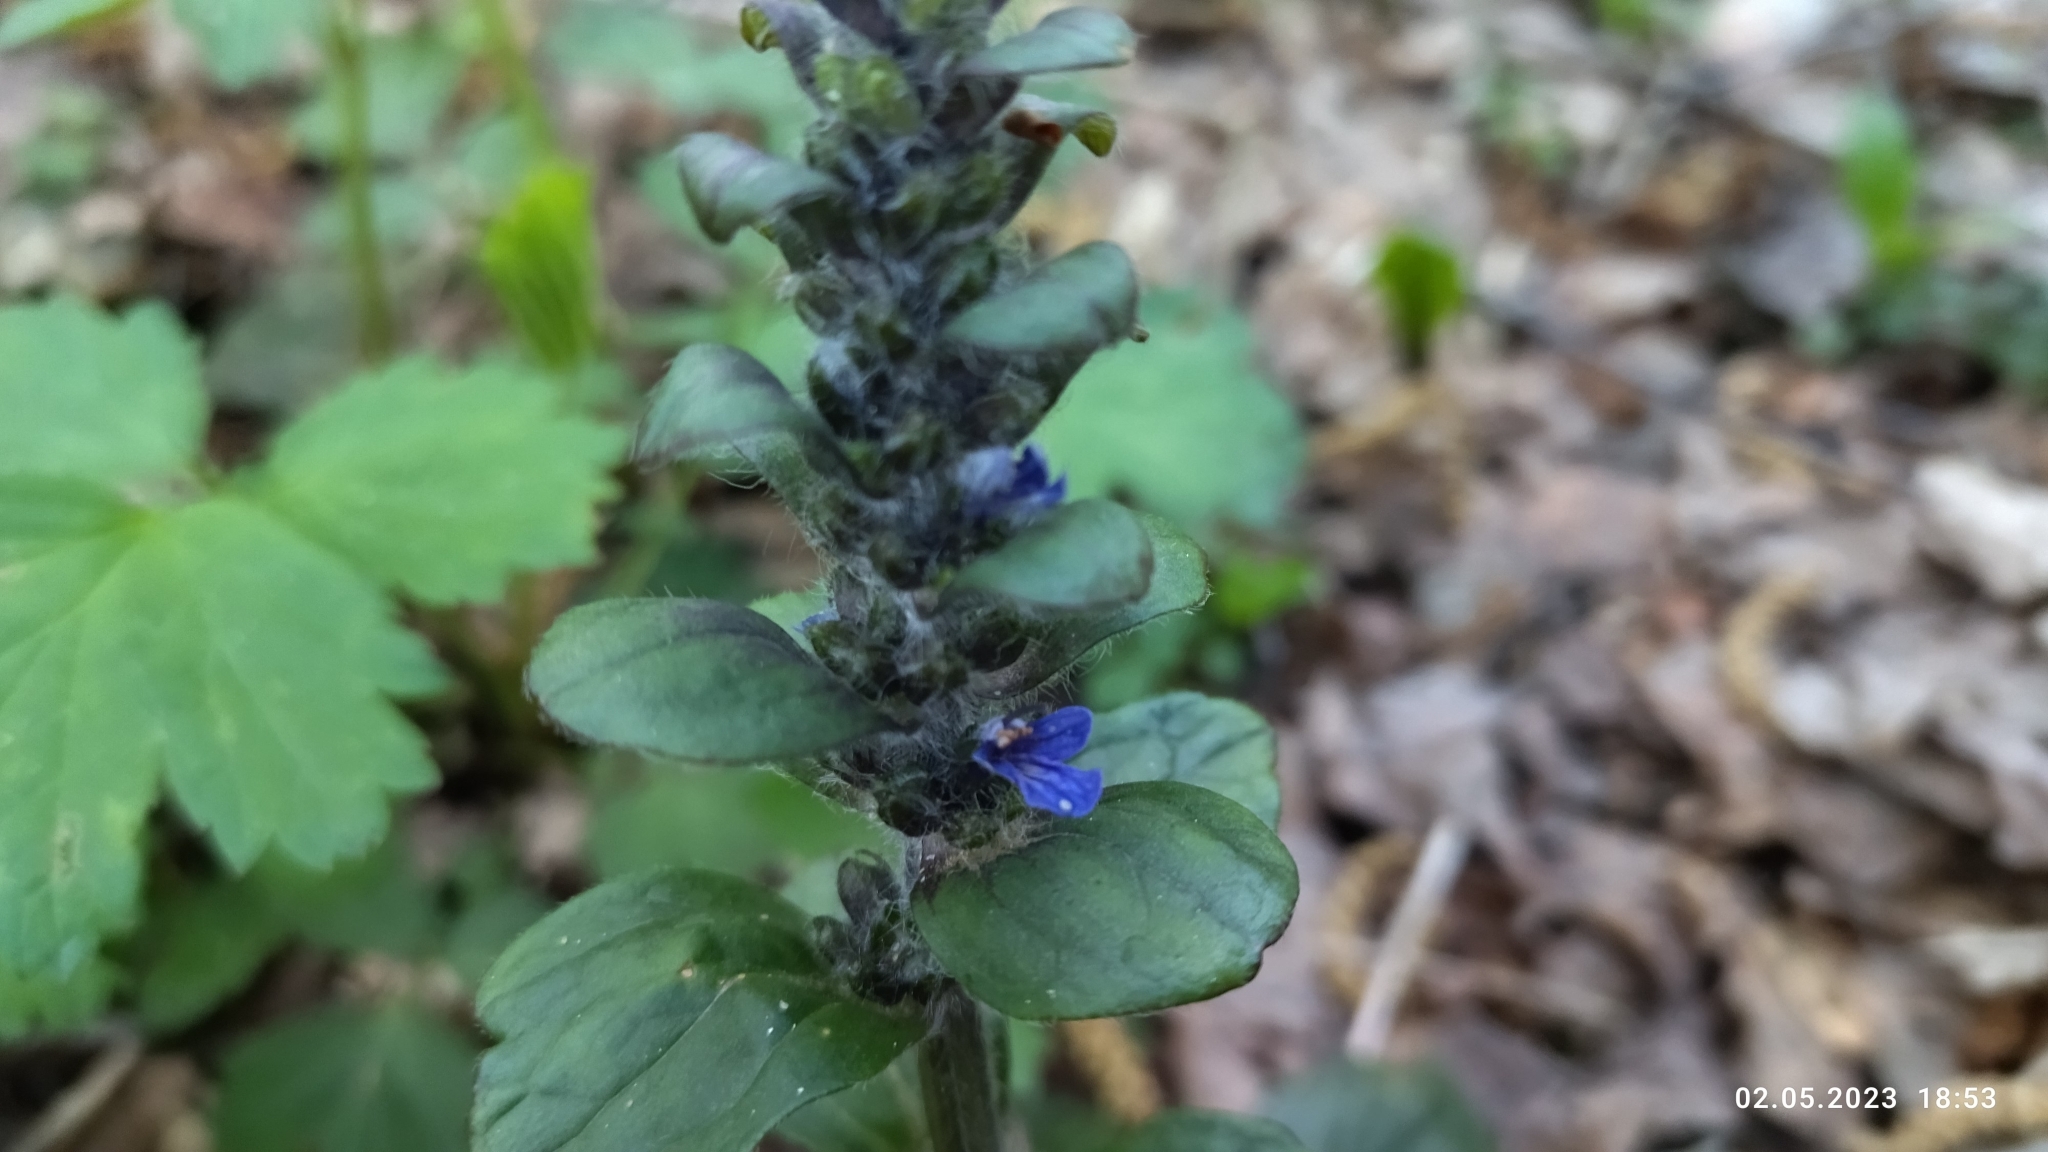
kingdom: Plantae
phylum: Tracheophyta
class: Magnoliopsida
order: Lamiales
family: Lamiaceae
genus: Ajuga
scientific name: Ajuga reptans
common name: Bugle
